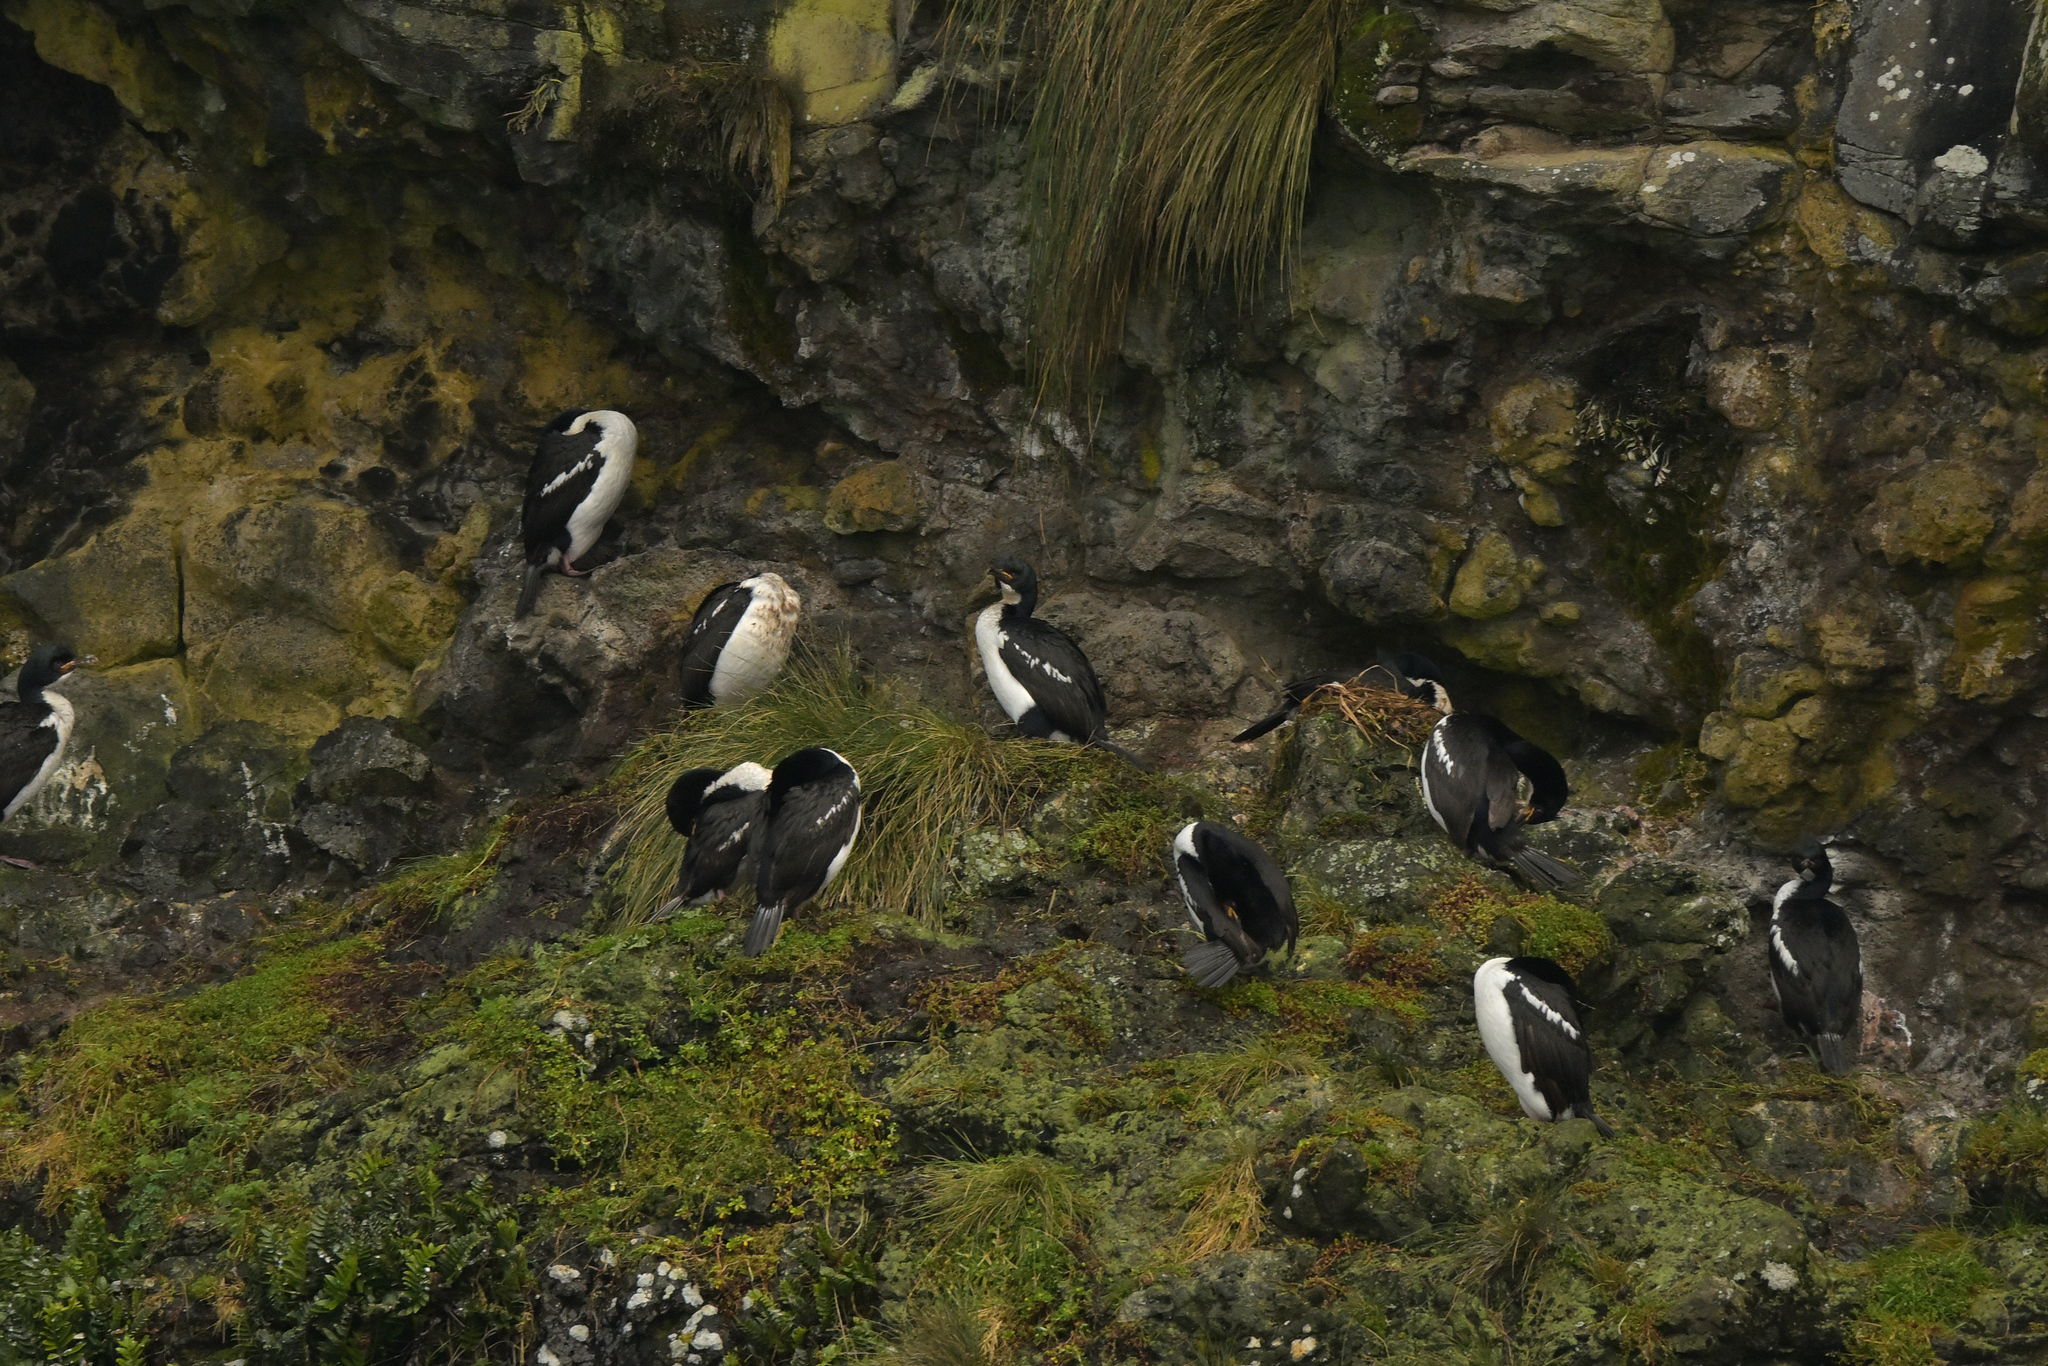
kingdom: Animalia
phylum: Chordata
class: Aves
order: Suliformes
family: Phalacrocoracidae
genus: Leucocarbo
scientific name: Leucocarbo colensoi
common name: Auckland shag
